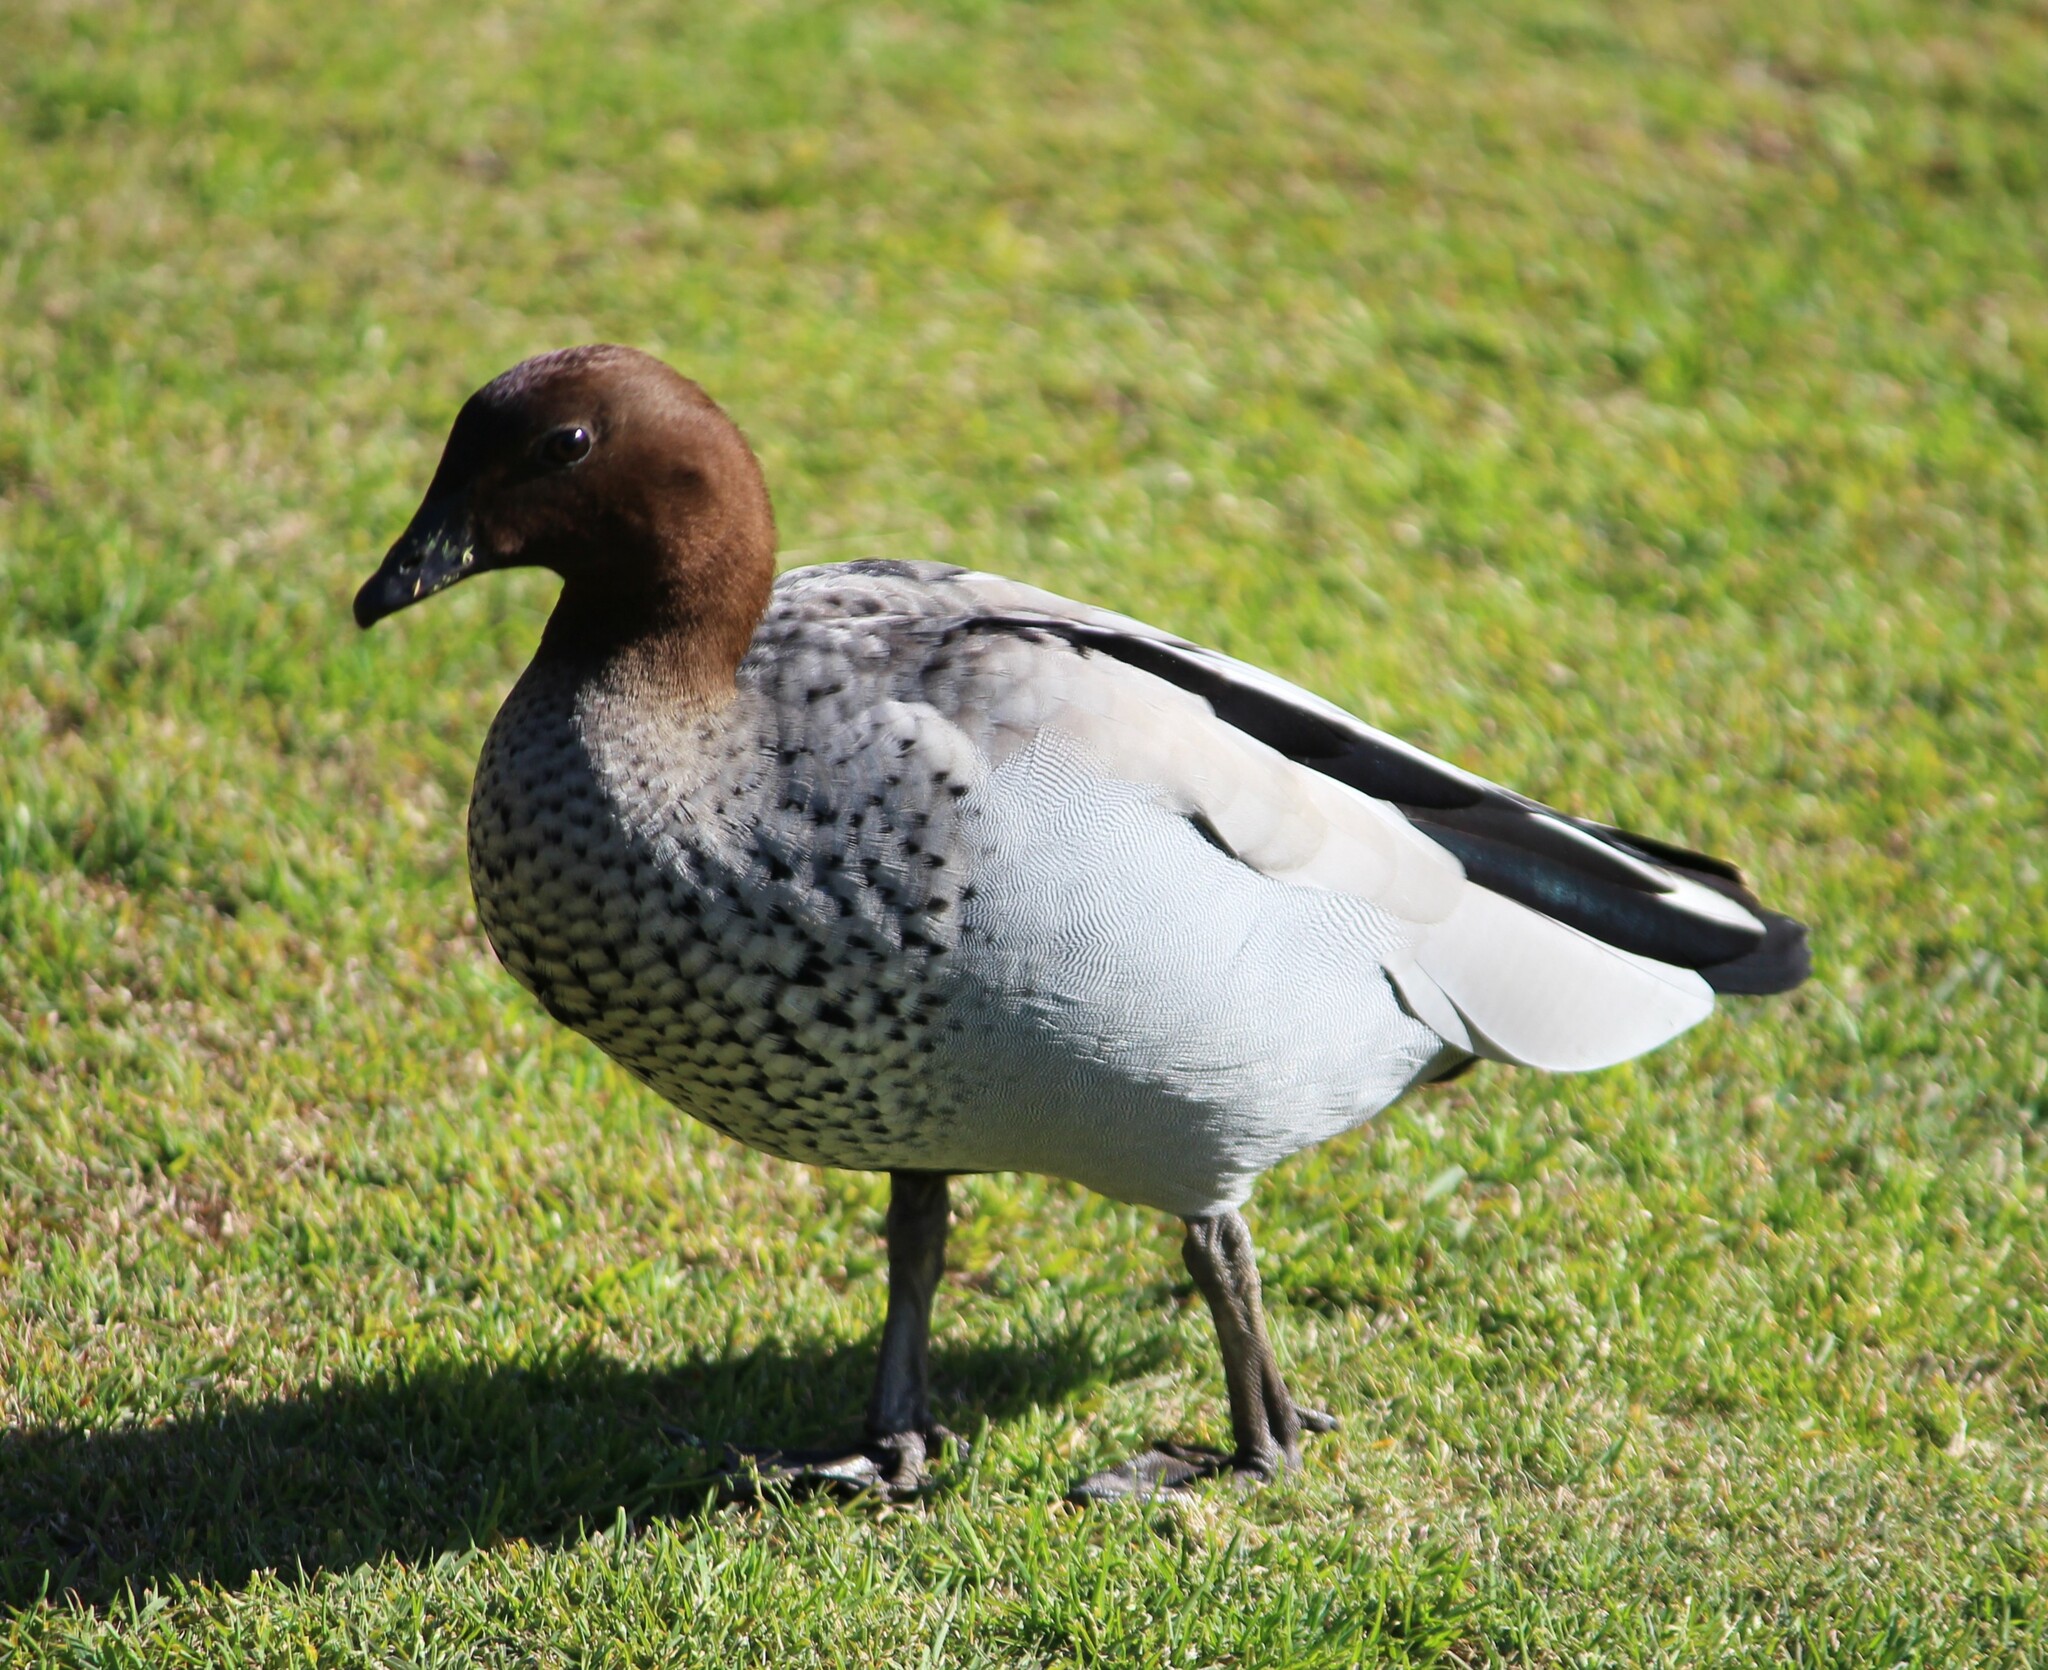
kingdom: Animalia
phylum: Chordata
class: Aves
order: Anseriformes
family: Anatidae
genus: Chenonetta
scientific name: Chenonetta jubata
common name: Maned duck
